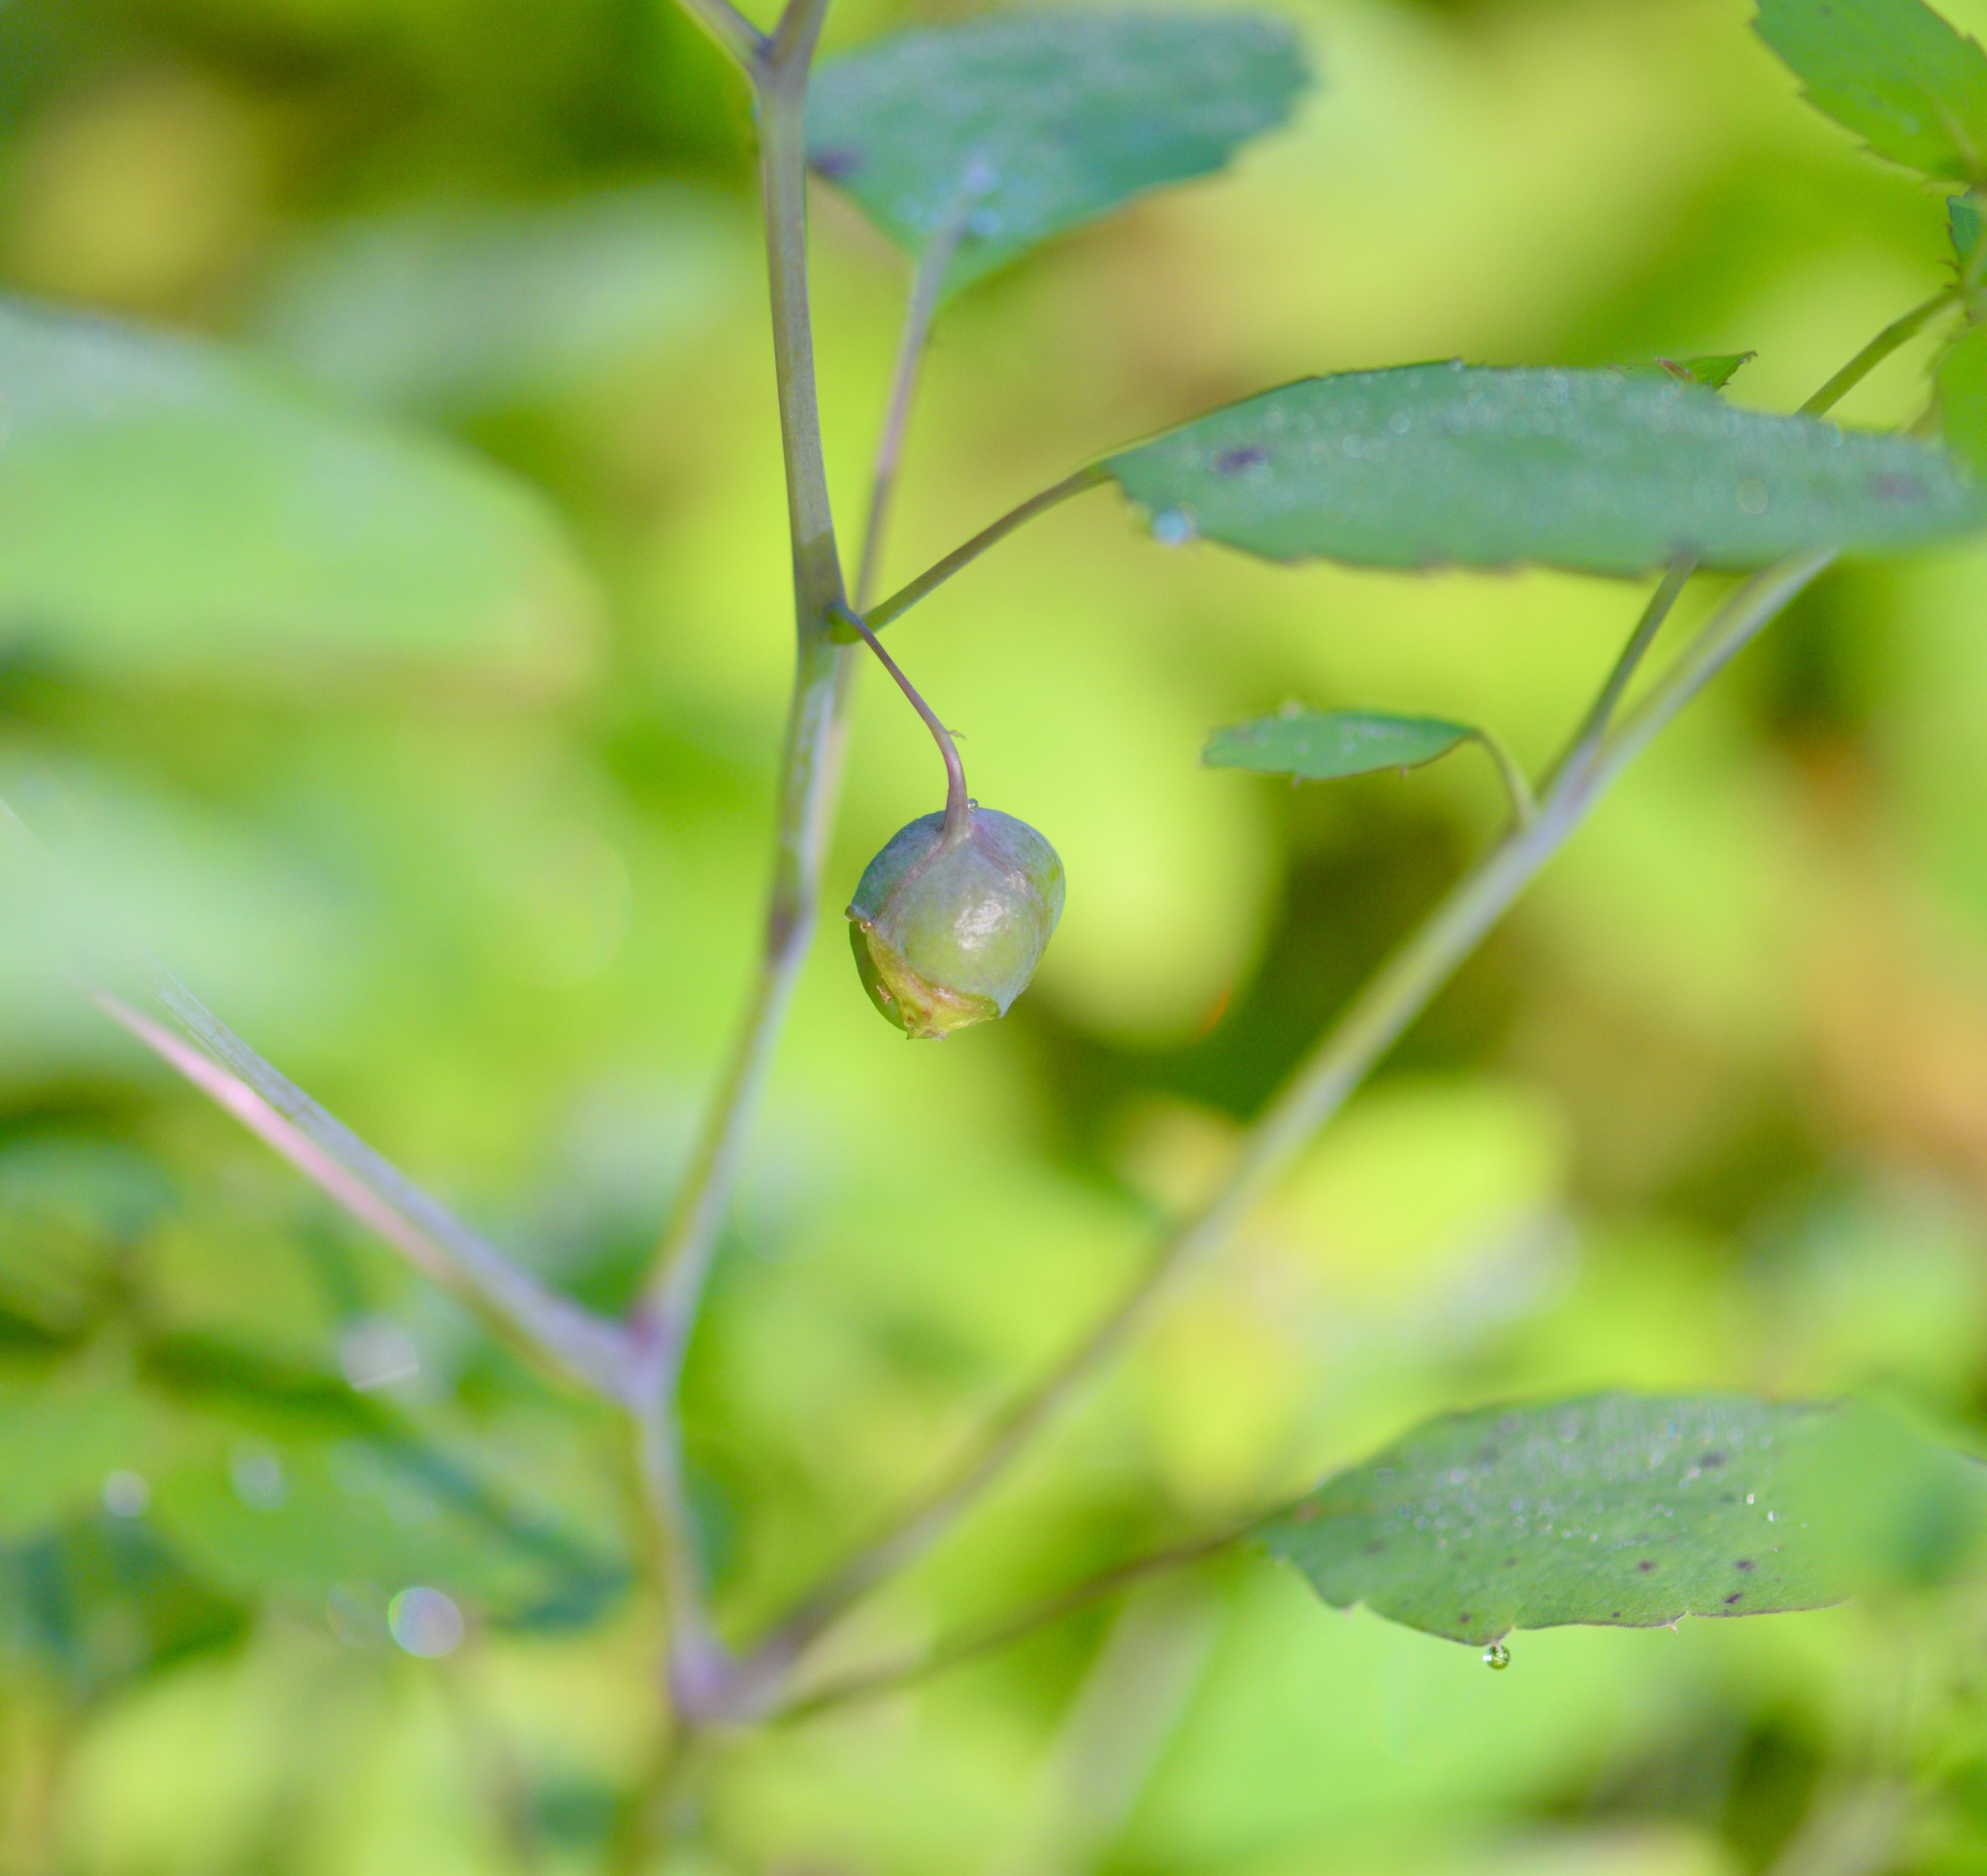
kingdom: Animalia
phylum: Arthropoda
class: Insecta
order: Diptera
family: Cecidomyiidae
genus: Schizomyia
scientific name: Schizomyia impatientis
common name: Jewelweed gall midge
